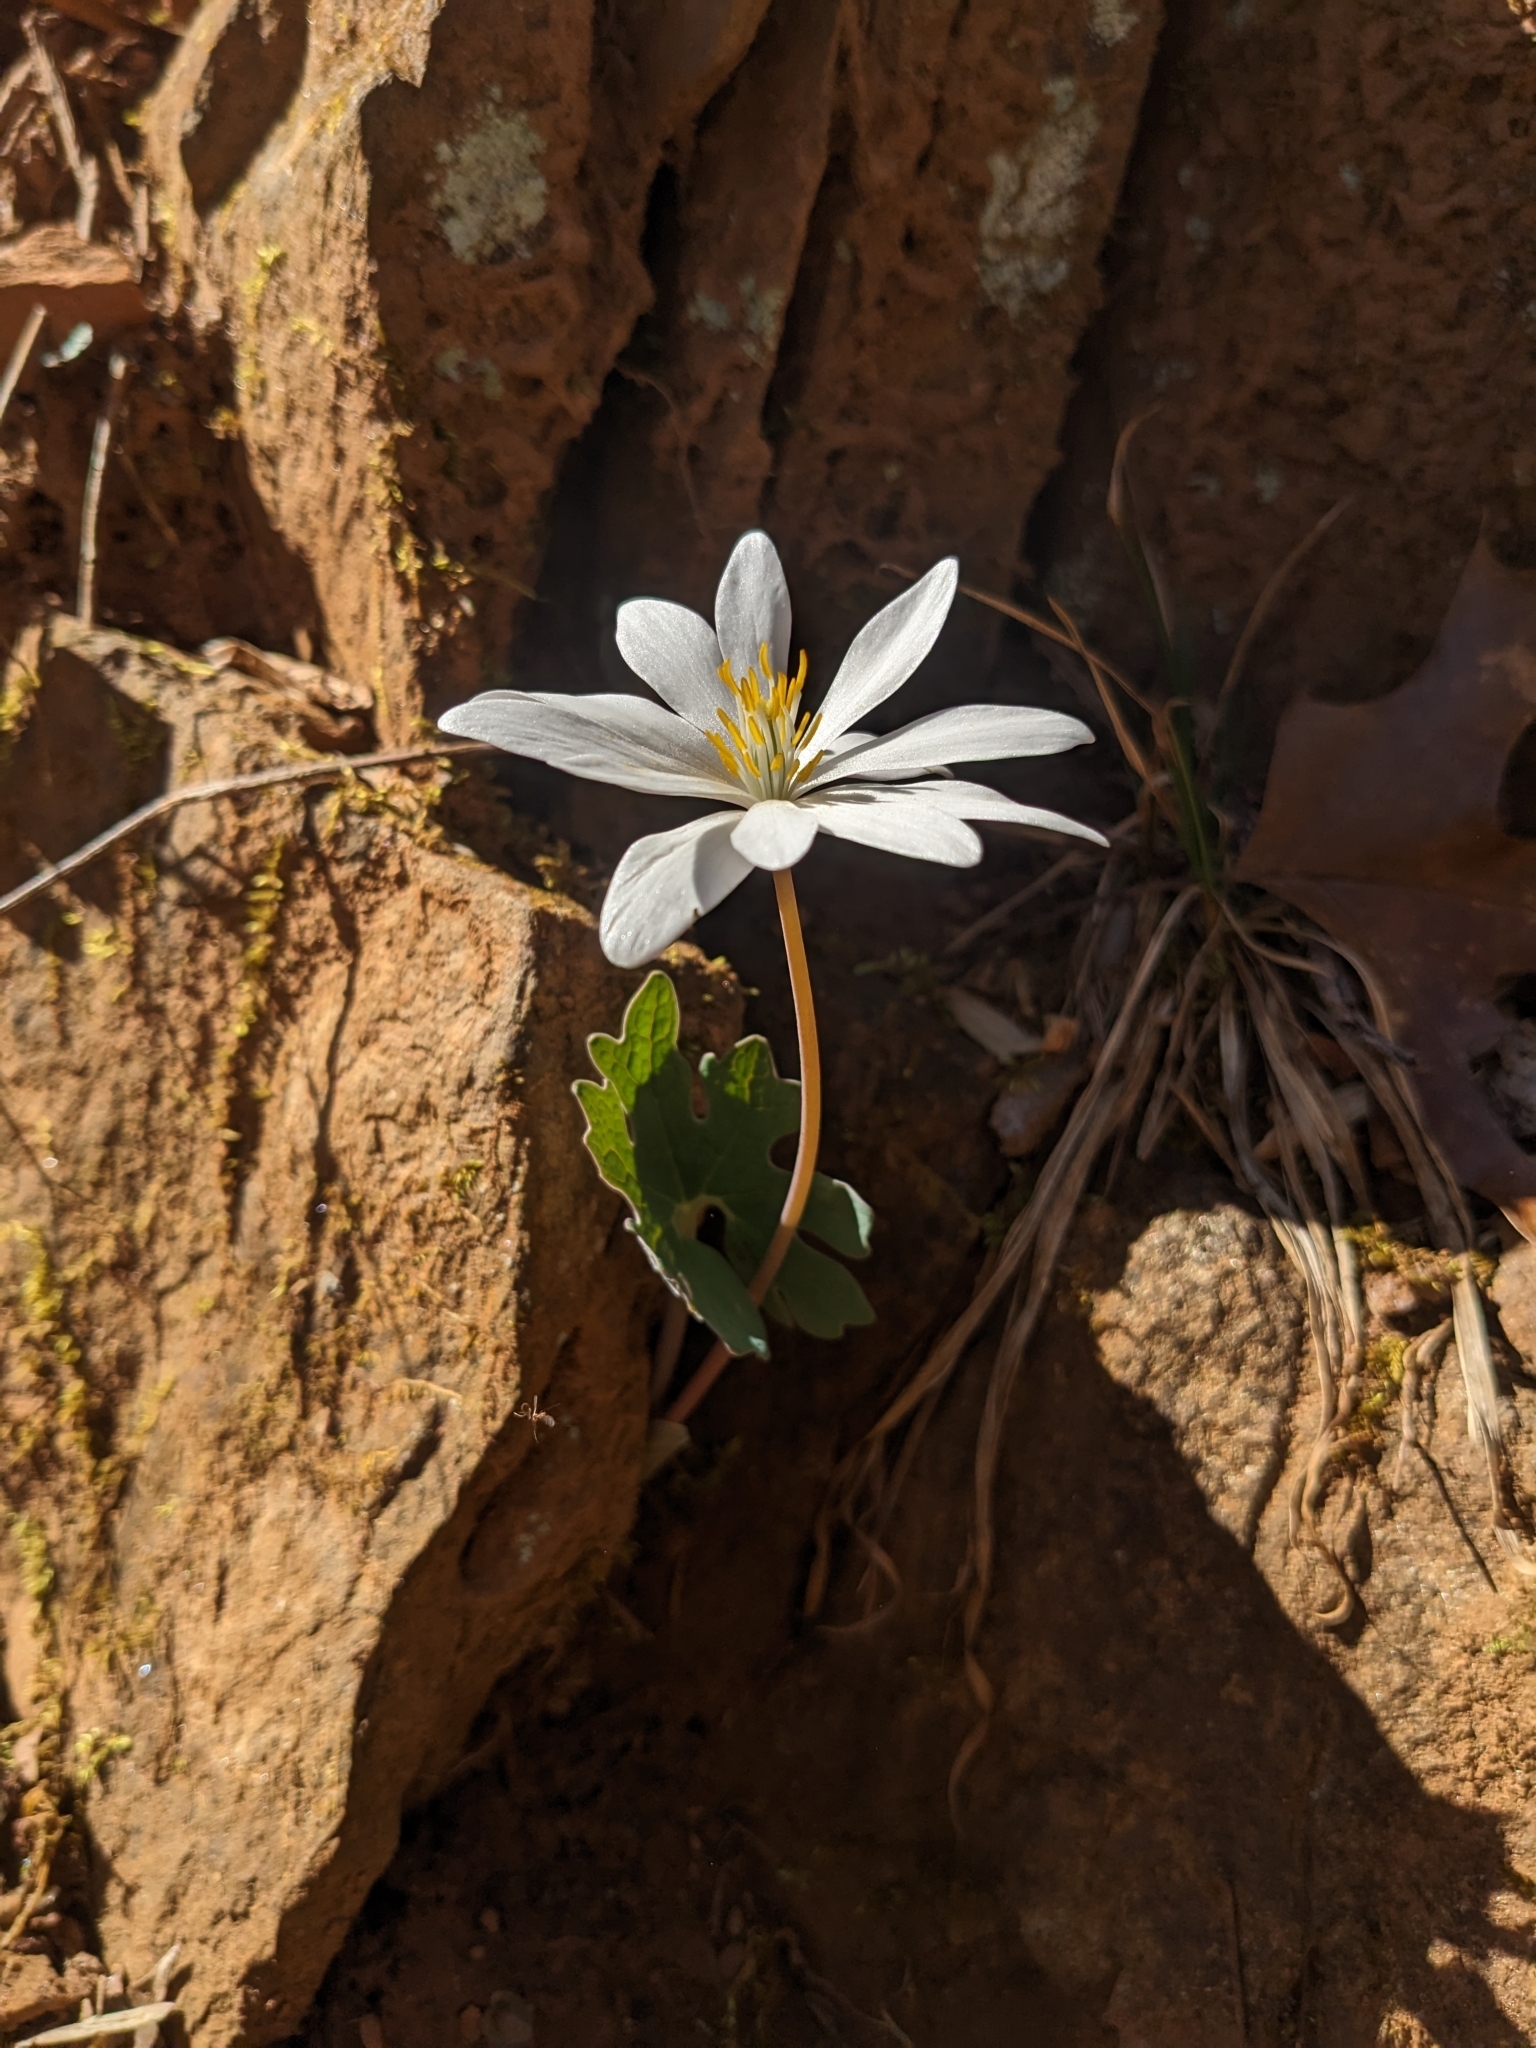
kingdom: Plantae
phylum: Tracheophyta
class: Magnoliopsida
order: Ranunculales
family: Papaveraceae
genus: Sanguinaria
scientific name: Sanguinaria canadensis
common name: Bloodroot
